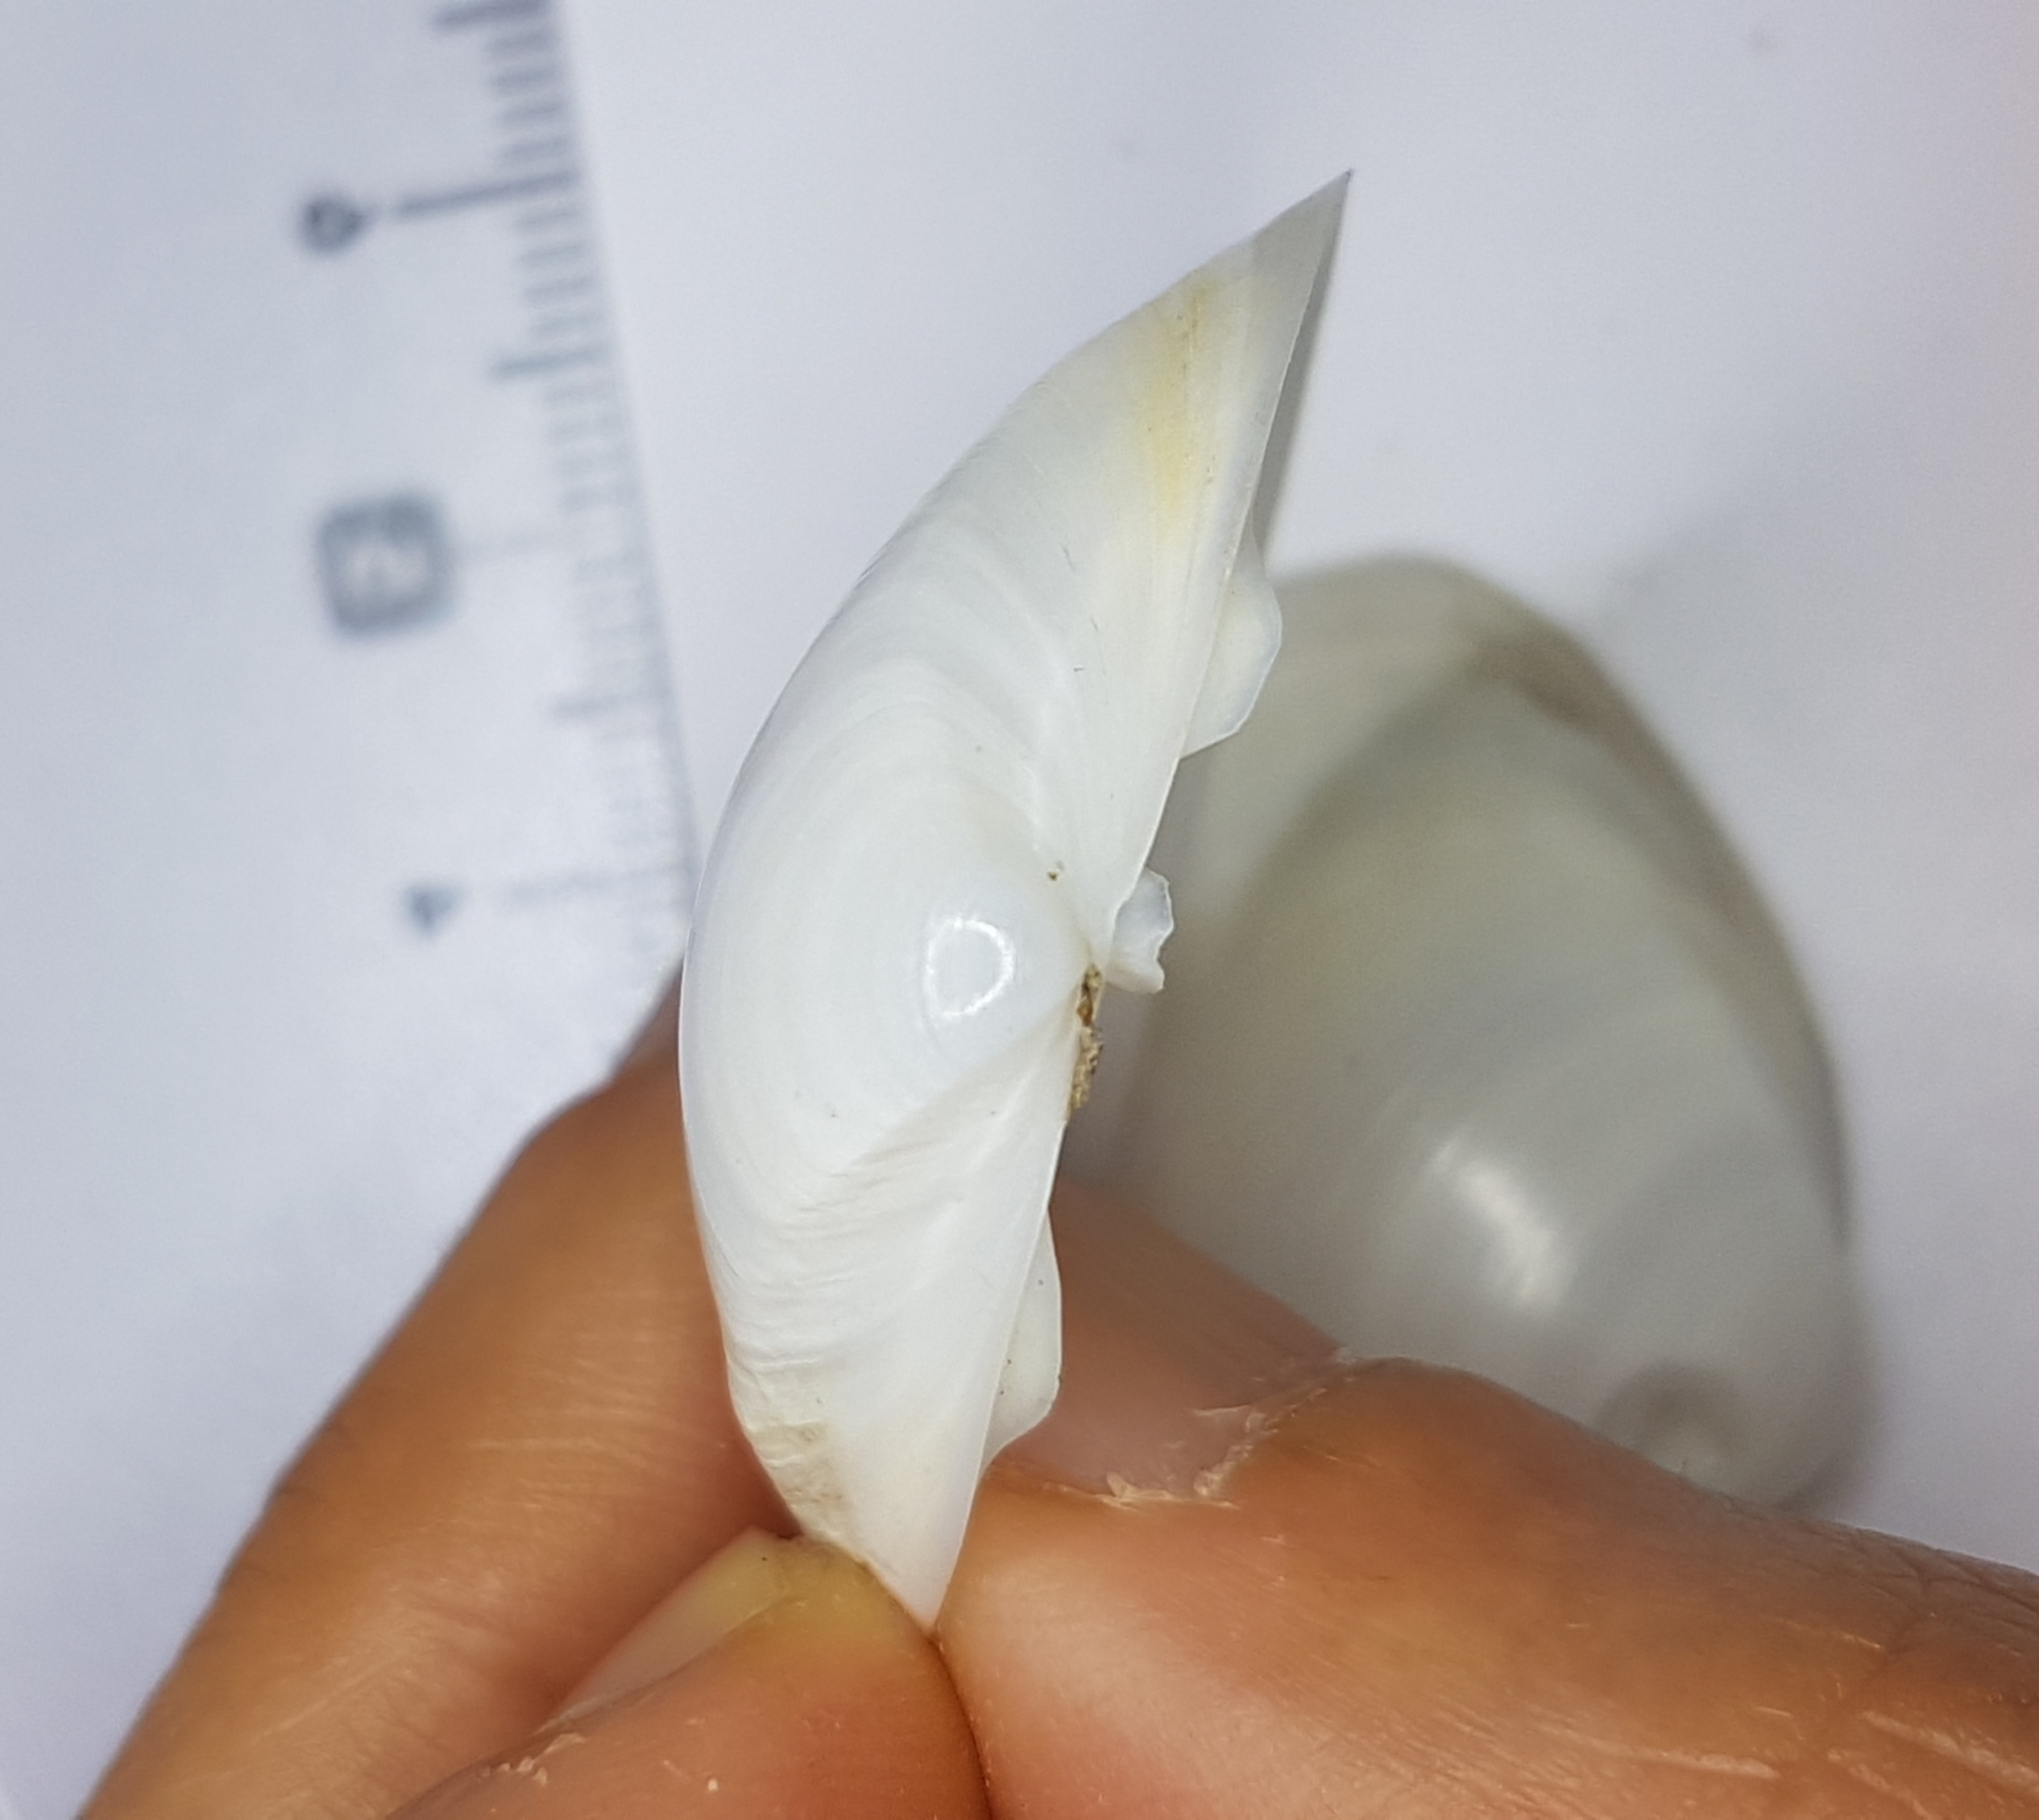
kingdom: Animalia
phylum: Mollusca
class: Bivalvia
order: Venerida
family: Mactridae
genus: Mactra
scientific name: Mactra stultorum
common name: Rayed trough shell
